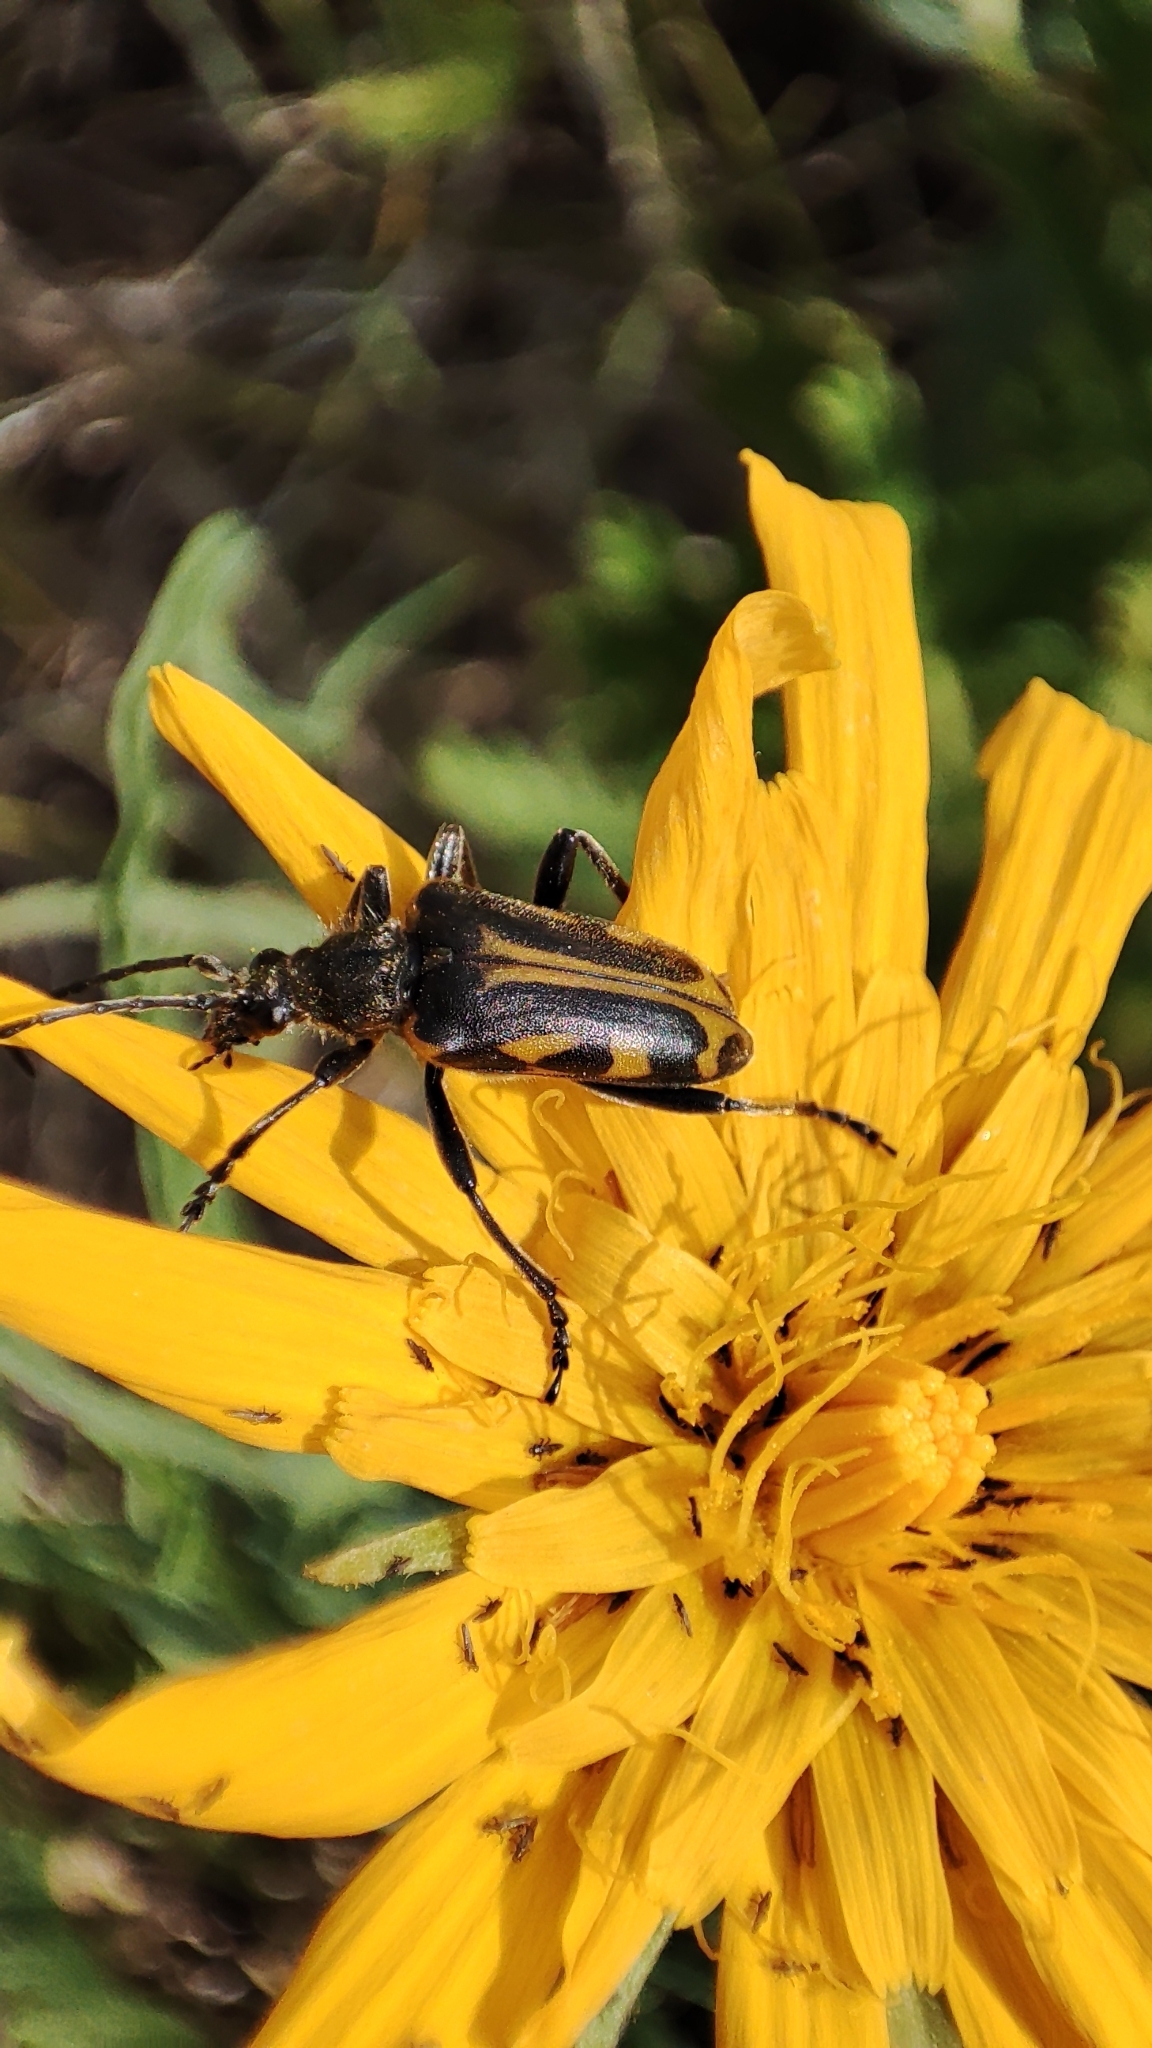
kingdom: Animalia
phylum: Arthropoda
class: Insecta
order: Coleoptera
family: Cerambycidae
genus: Brachyta
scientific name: Brachyta interrogationis
